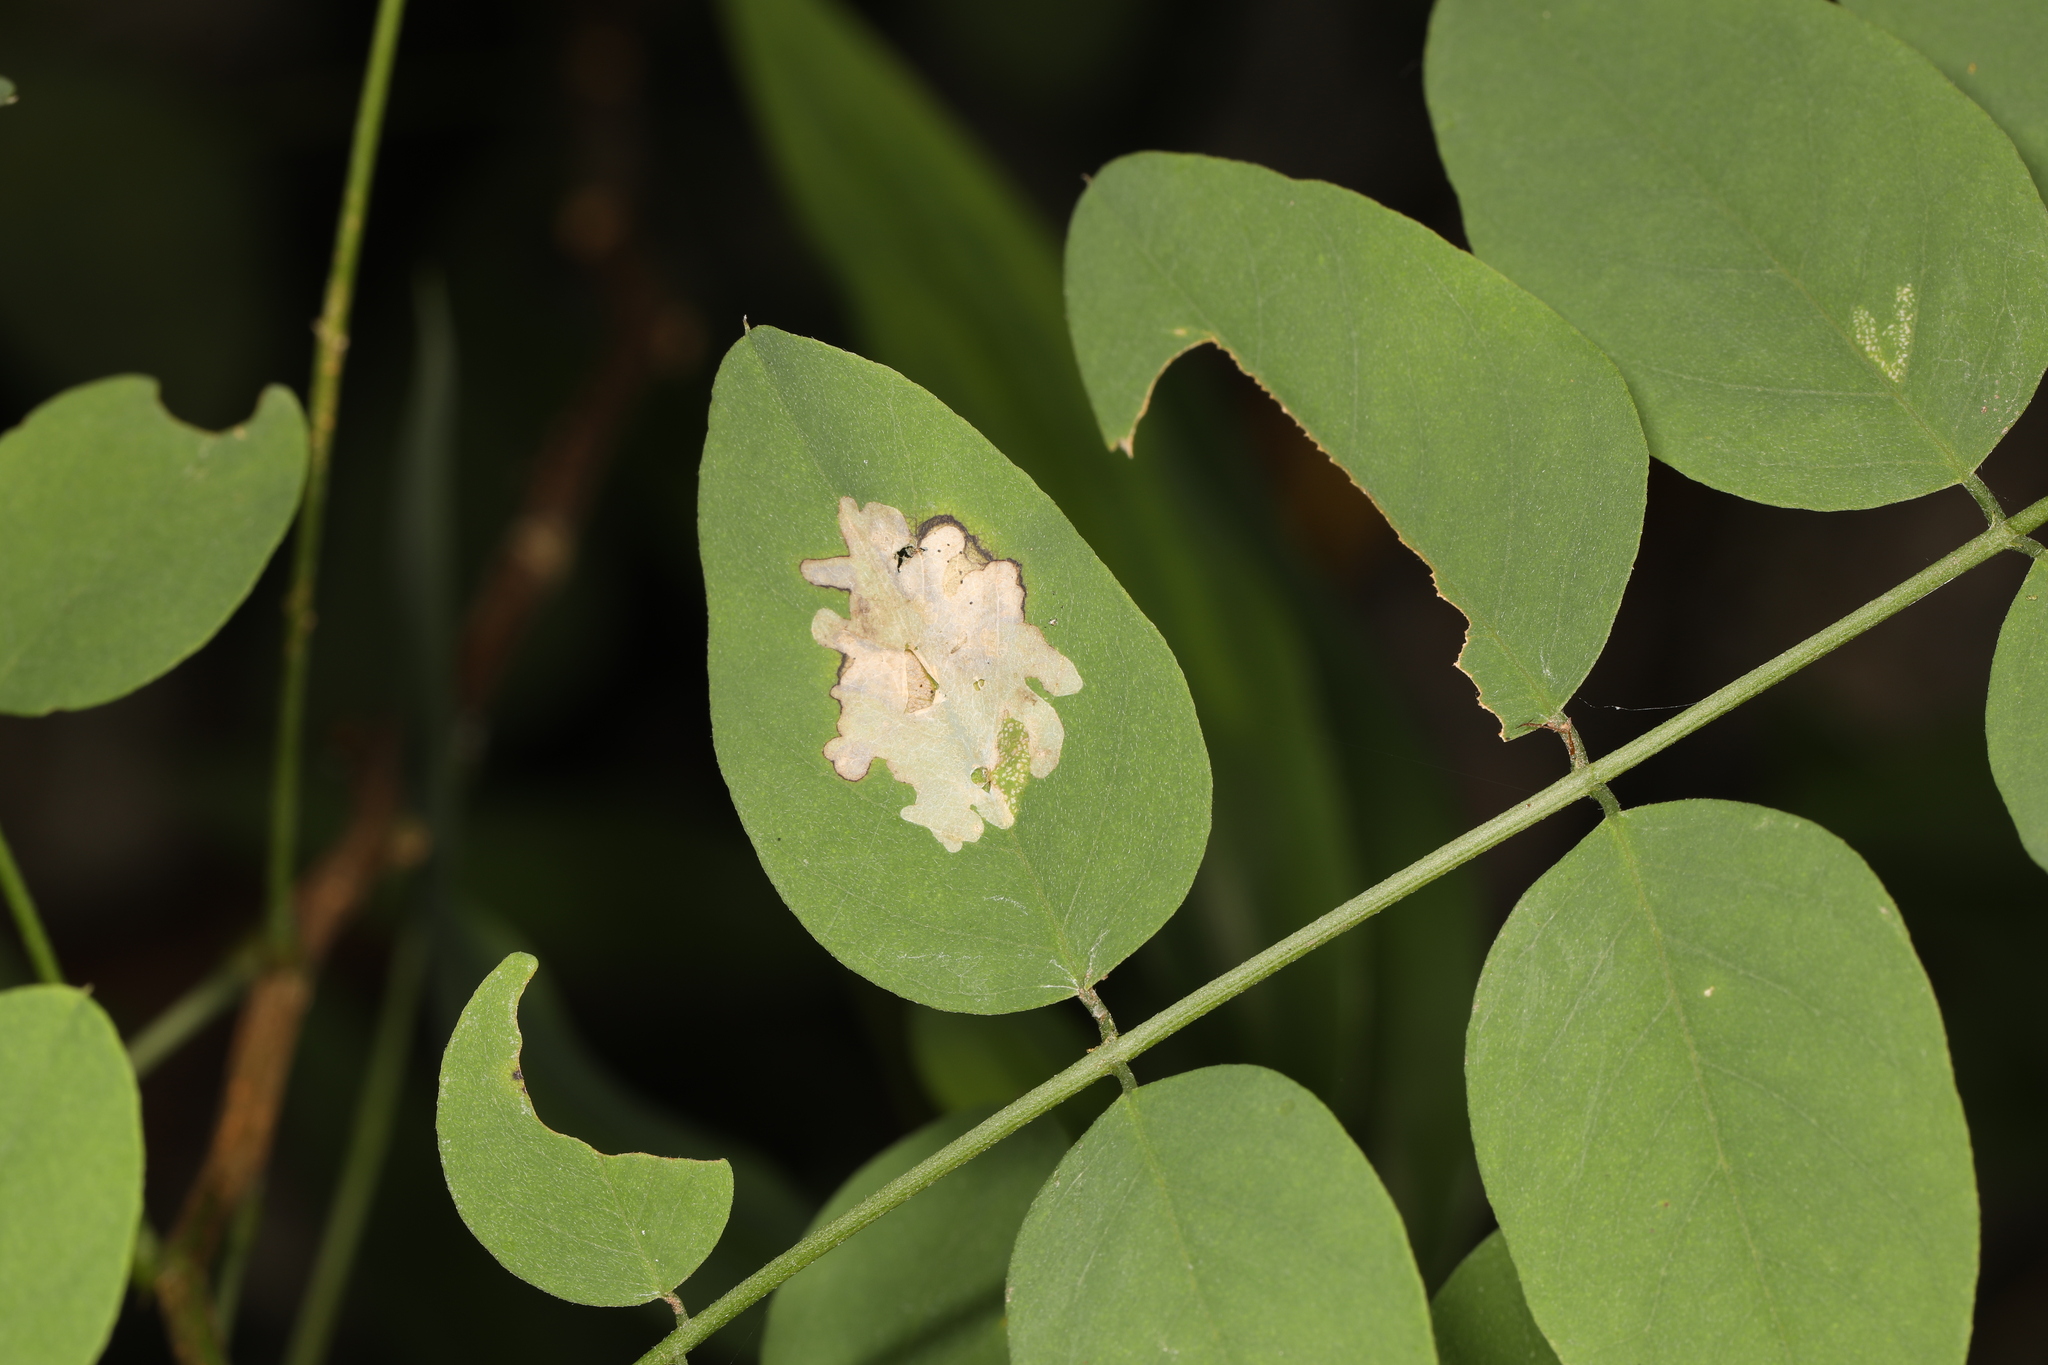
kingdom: Animalia
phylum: Arthropoda
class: Insecta
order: Lepidoptera
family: Gracillariidae
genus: Parectopa
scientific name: Parectopa robiniella
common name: Locust digitate leafminer
